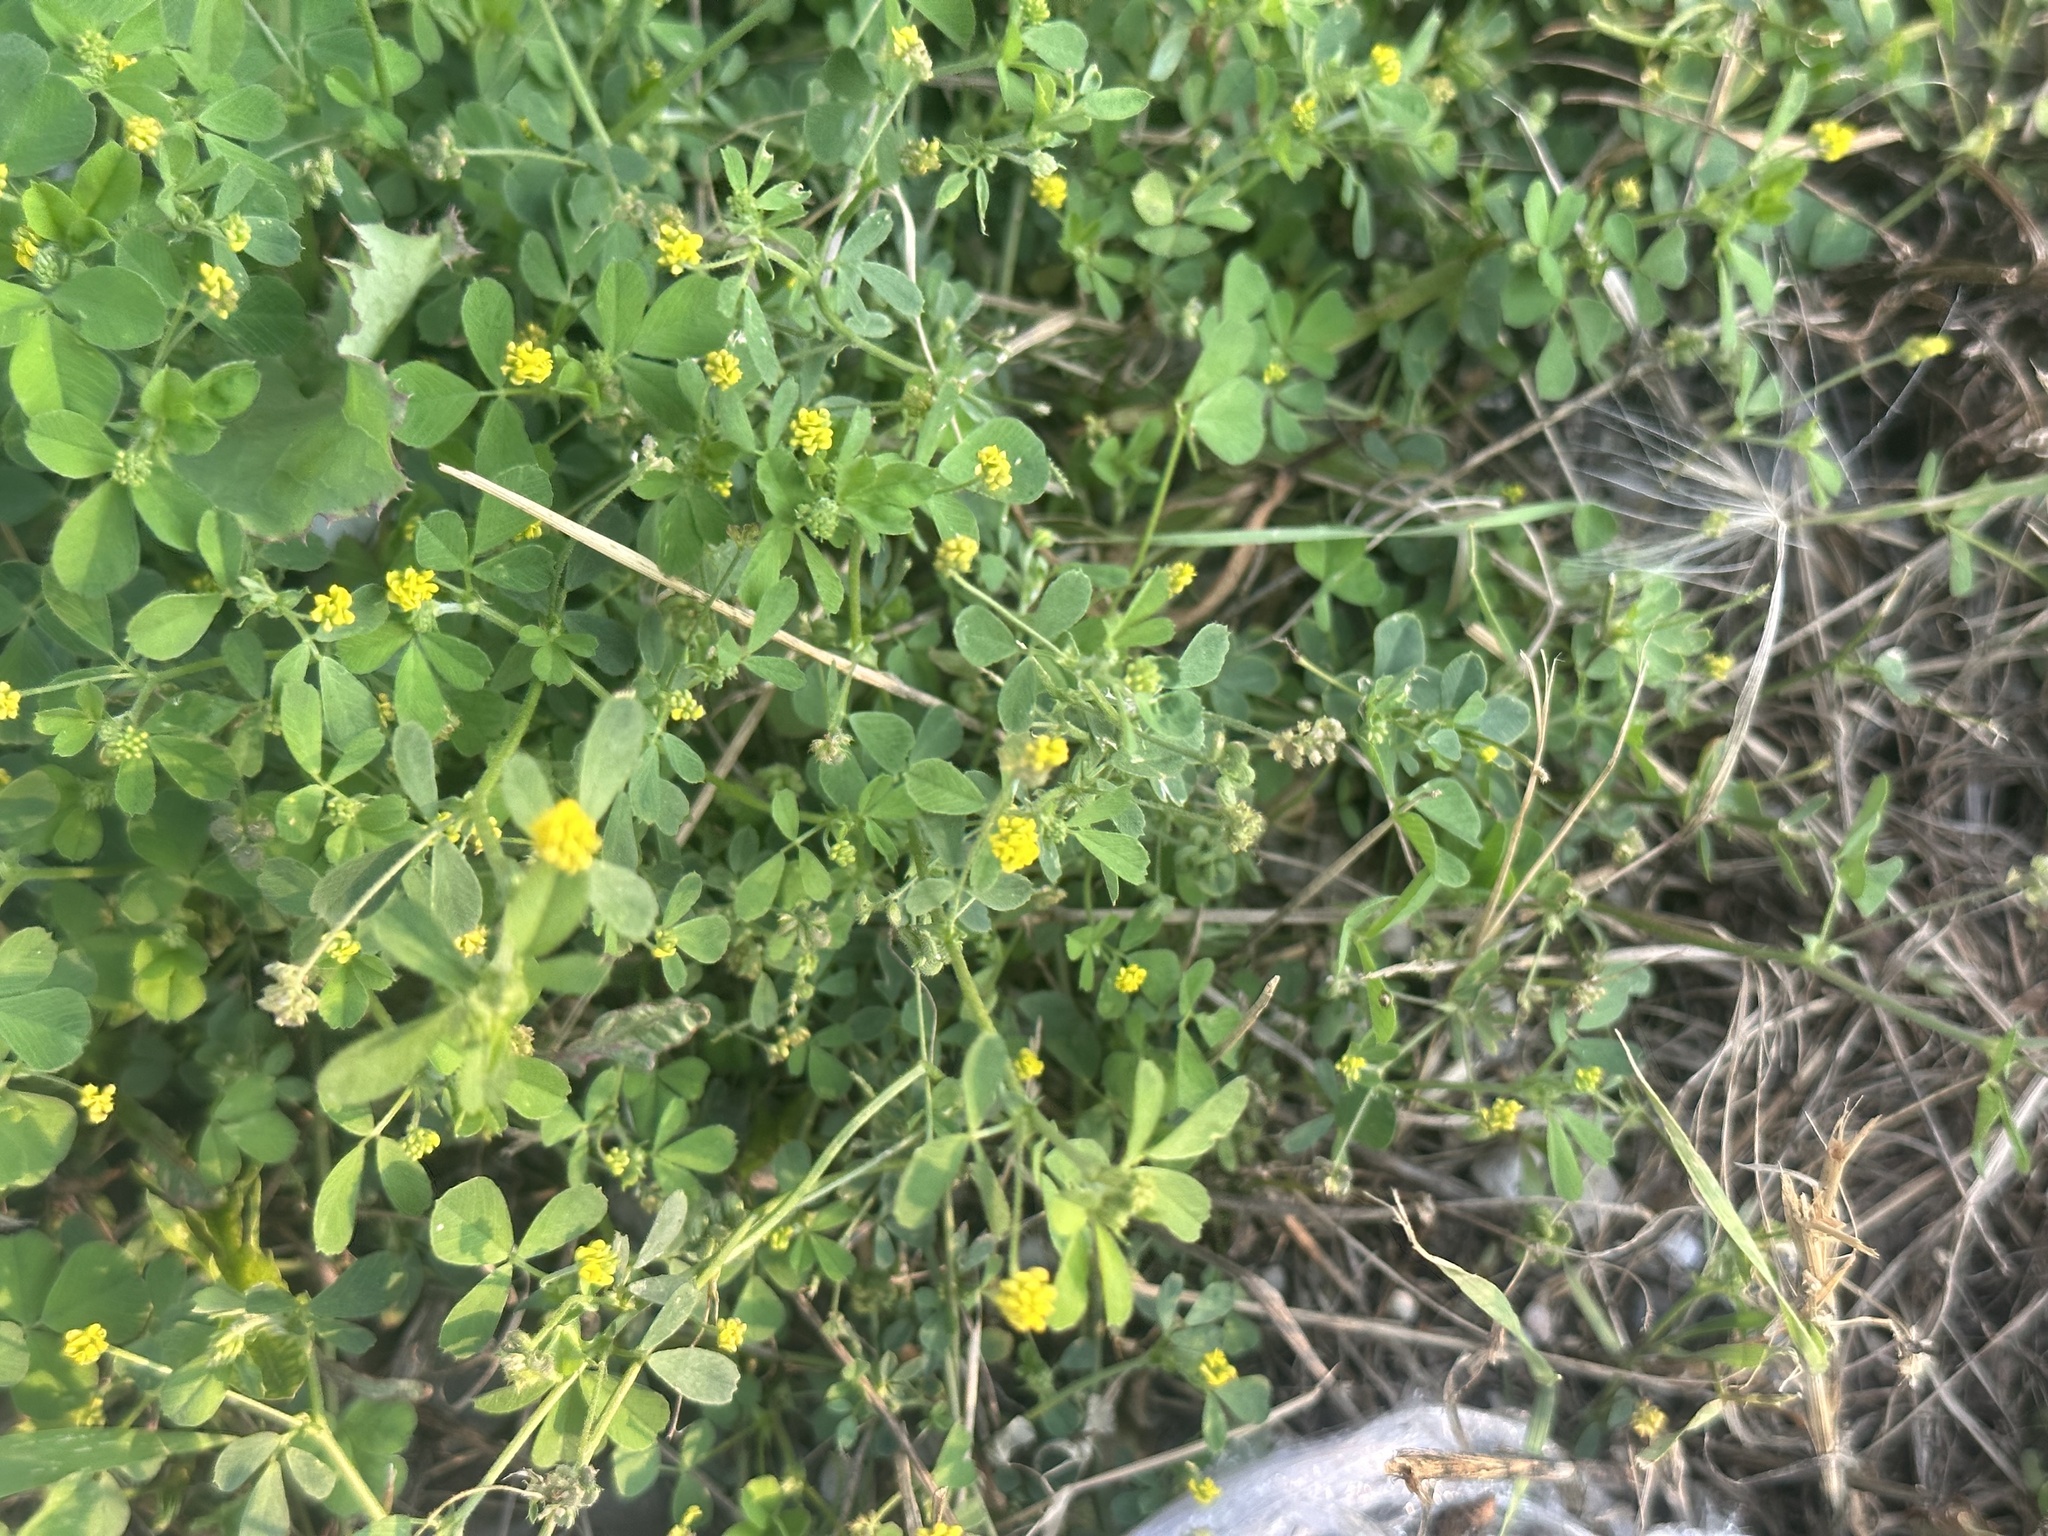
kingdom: Plantae
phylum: Tracheophyta
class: Magnoliopsida
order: Fabales
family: Fabaceae
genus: Medicago
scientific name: Medicago lupulina
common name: Black medick
